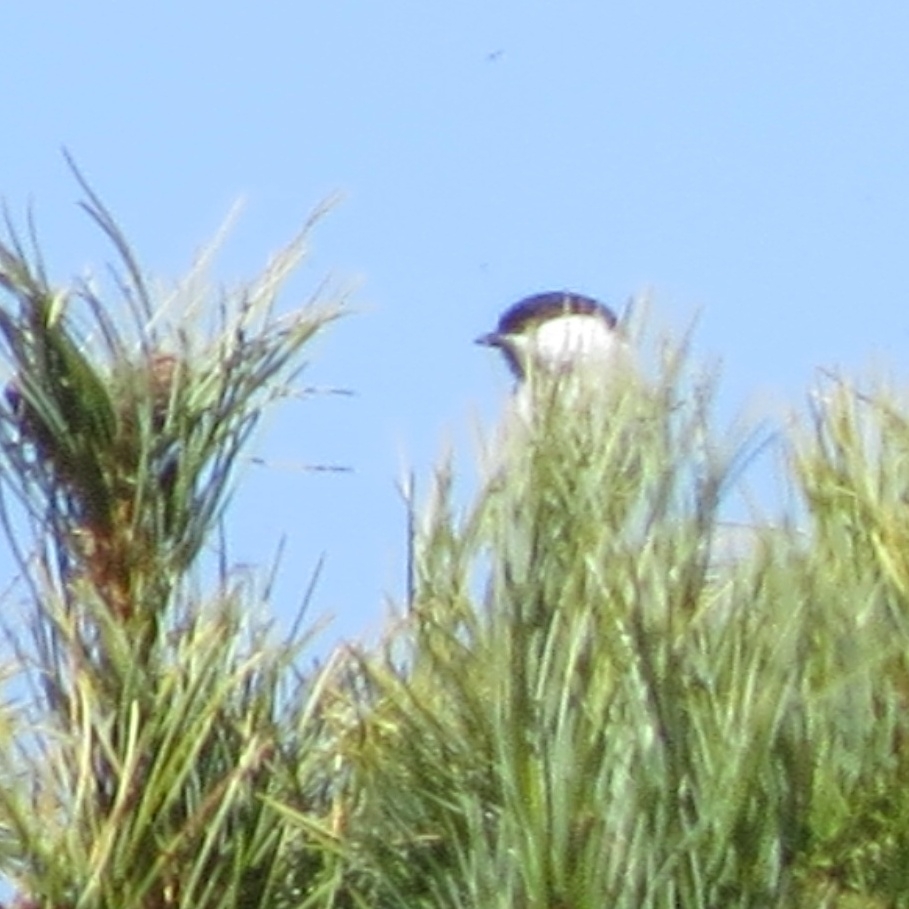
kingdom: Animalia
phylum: Chordata
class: Aves
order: Passeriformes
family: Paridae
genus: Poecile
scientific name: Poecile montanus
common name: Willow tit
